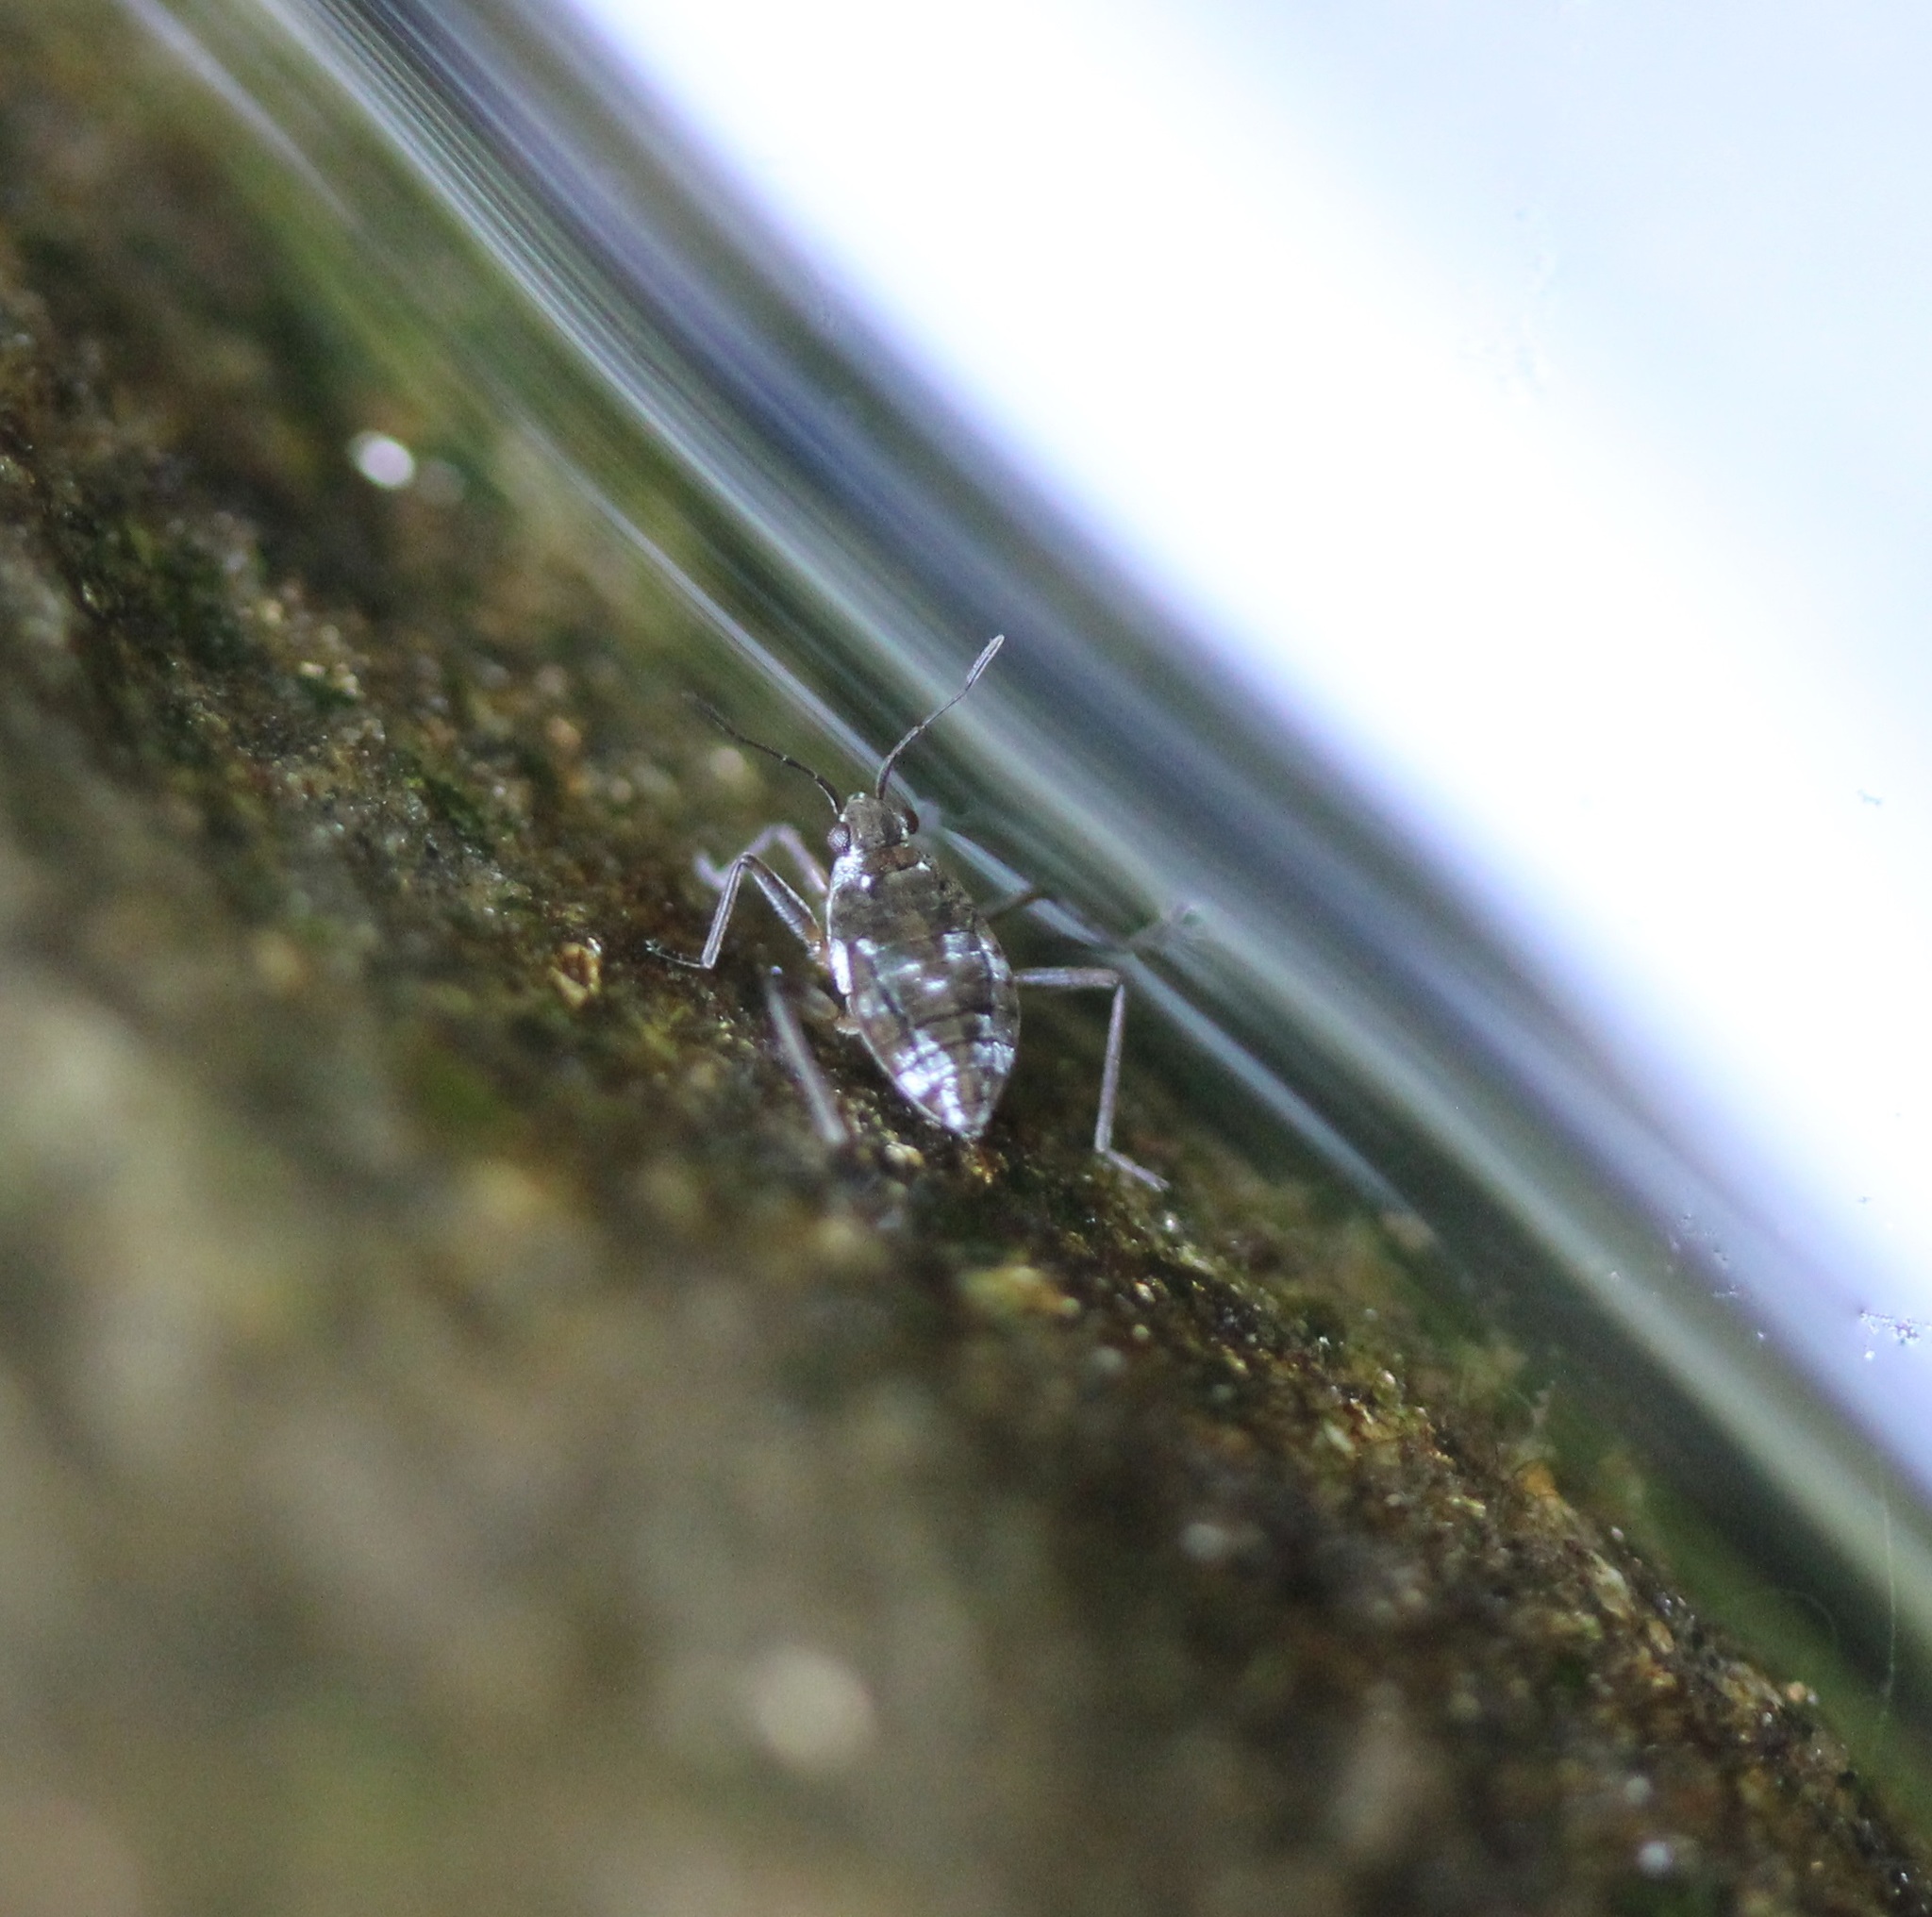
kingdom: Animalia
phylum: Arthropoda
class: Insecta
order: Hemiptera
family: Veliidae
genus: Microvelia
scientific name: Microvelia americana
